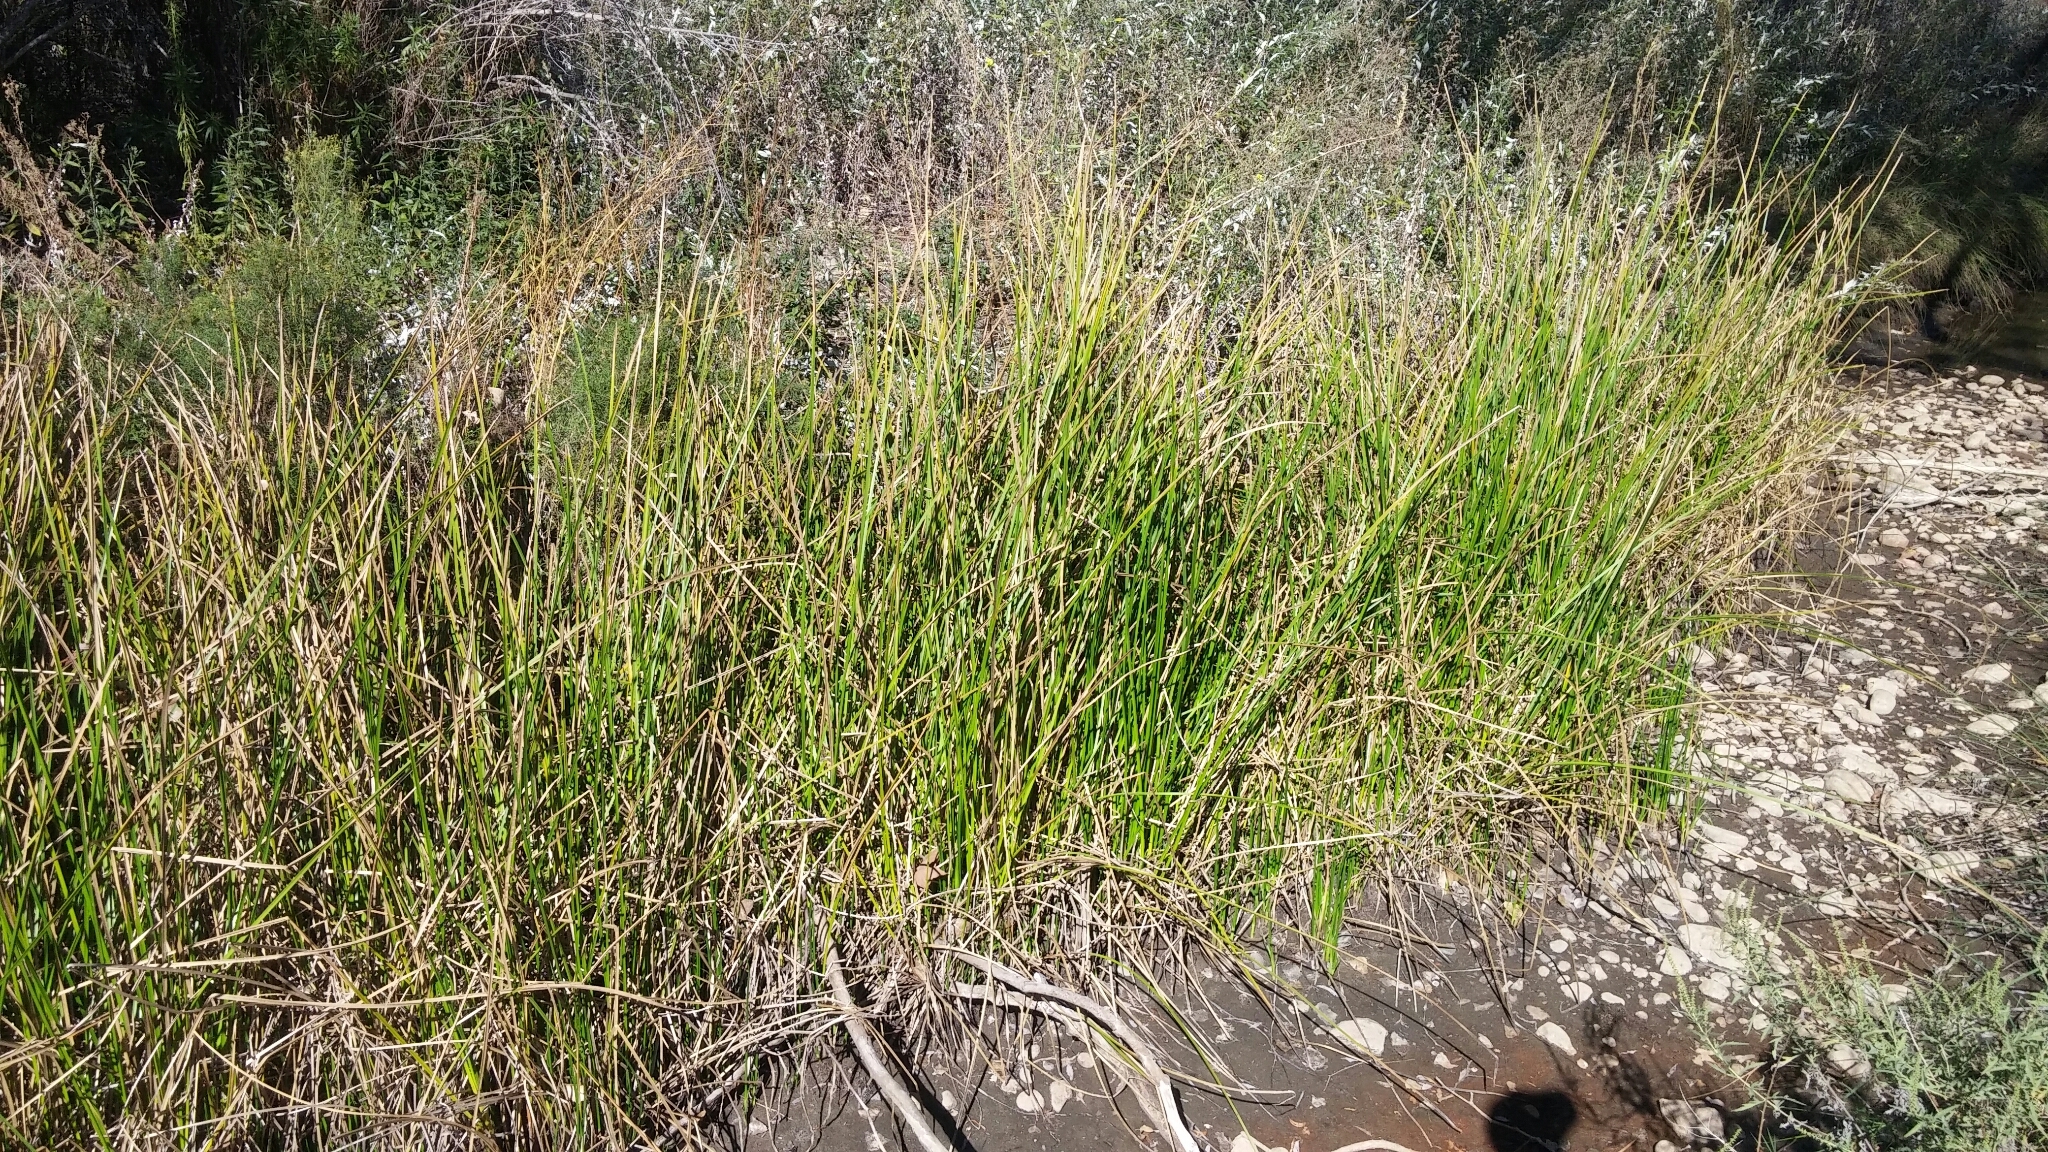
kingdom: Plantae
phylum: Tracheophyta
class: Liliopsida
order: Poales
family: Cyperaceae
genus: Schoenoplectus
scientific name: Schoenoplectus americanus
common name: American three-square bulrush
